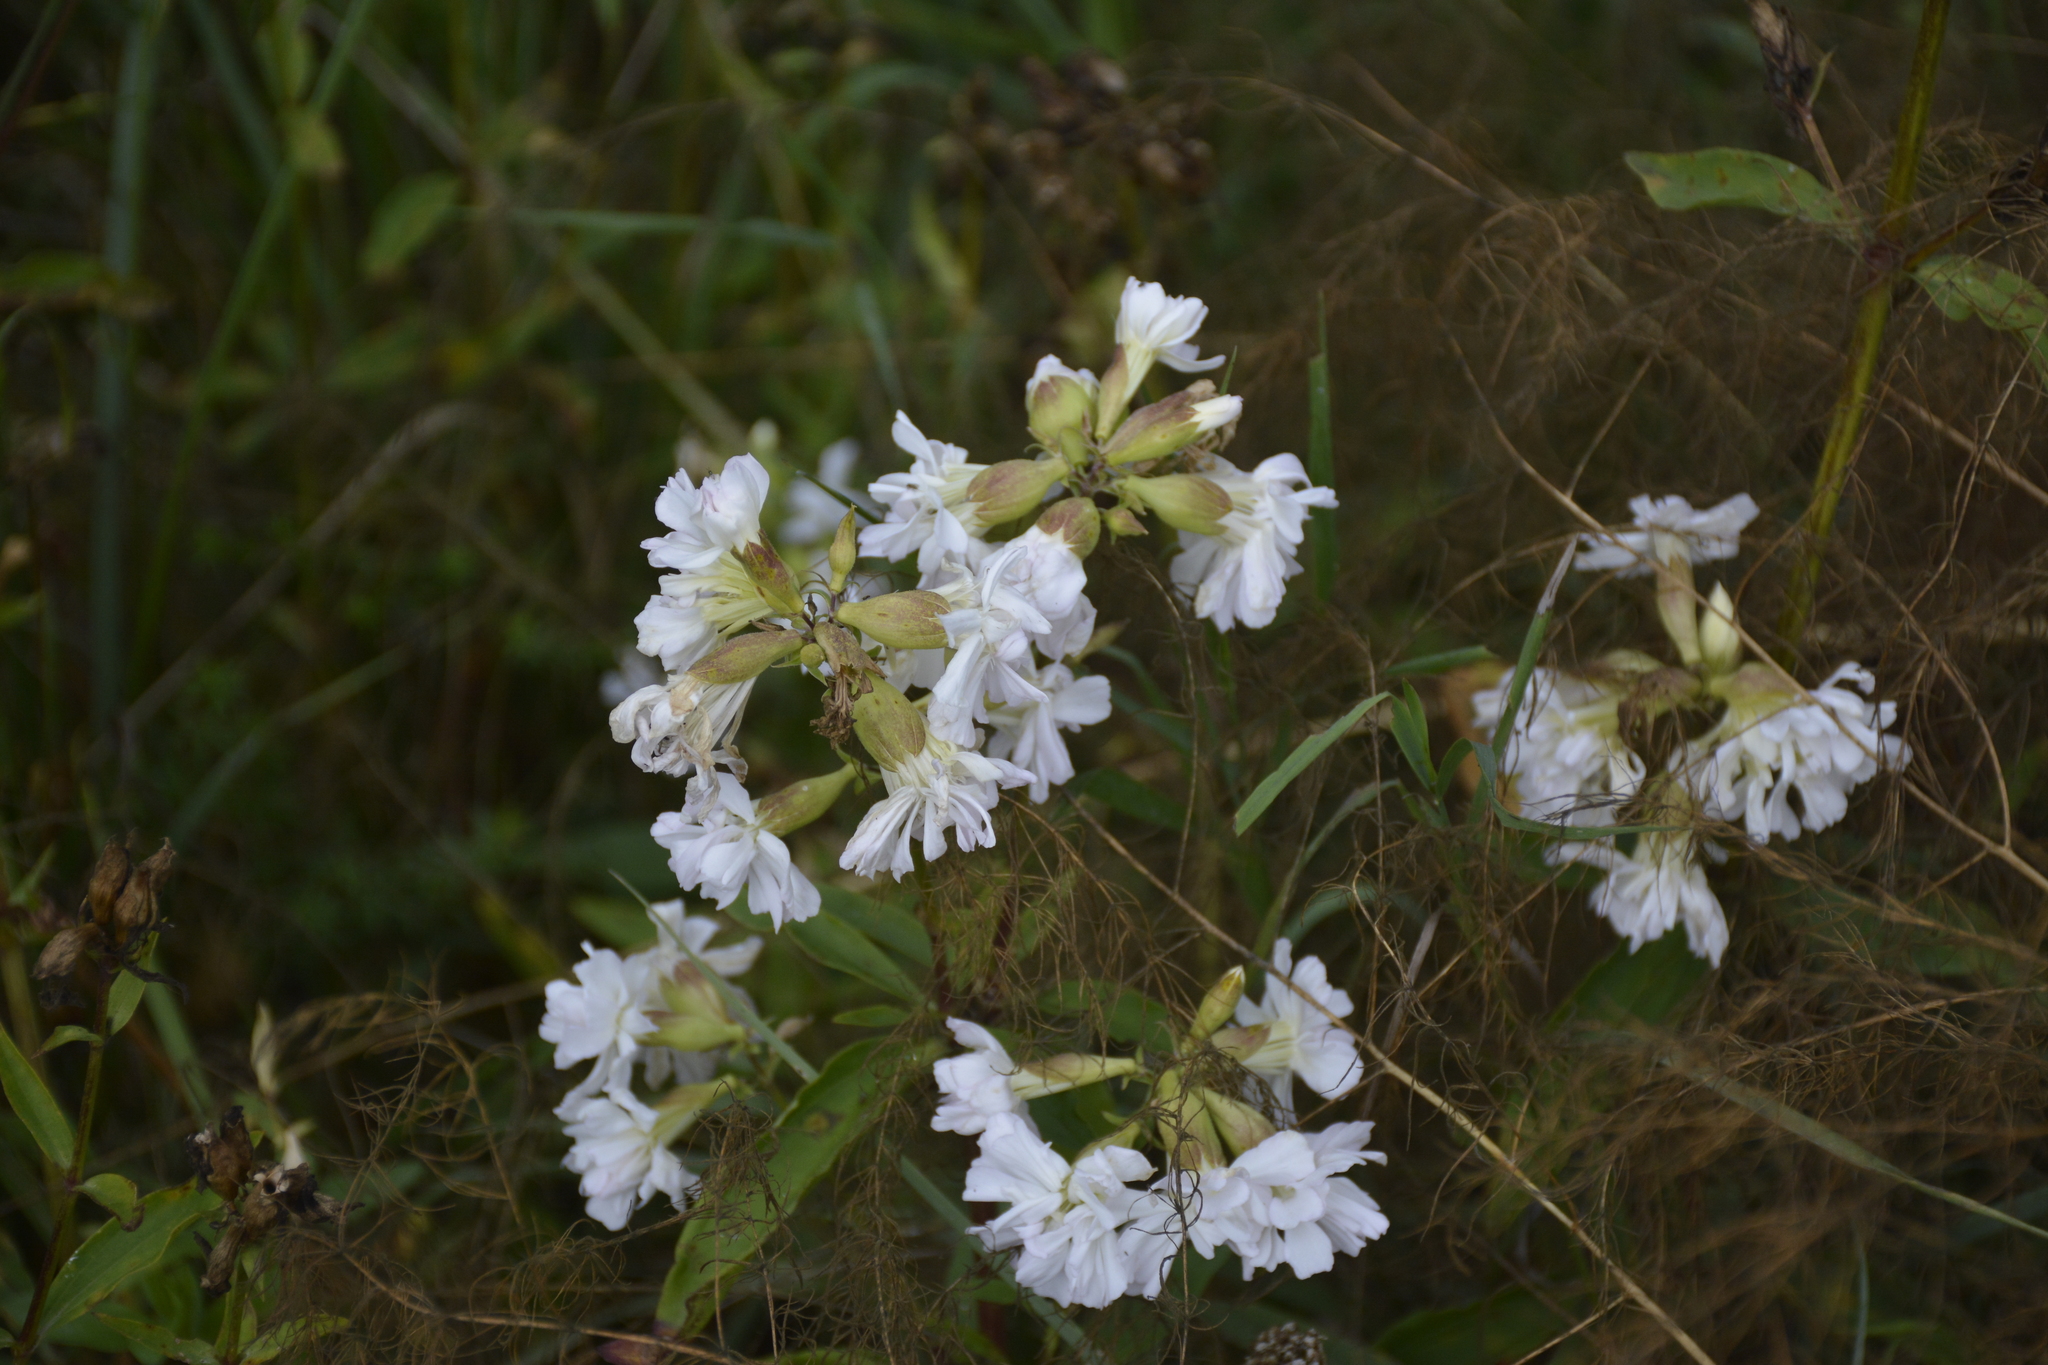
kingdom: Plantae
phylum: Tracheophyta
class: Magnoliopsida
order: Caryophyllales
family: Caryophyllaceae
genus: Saponaria
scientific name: Saponaria officinalis
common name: Soapwort
